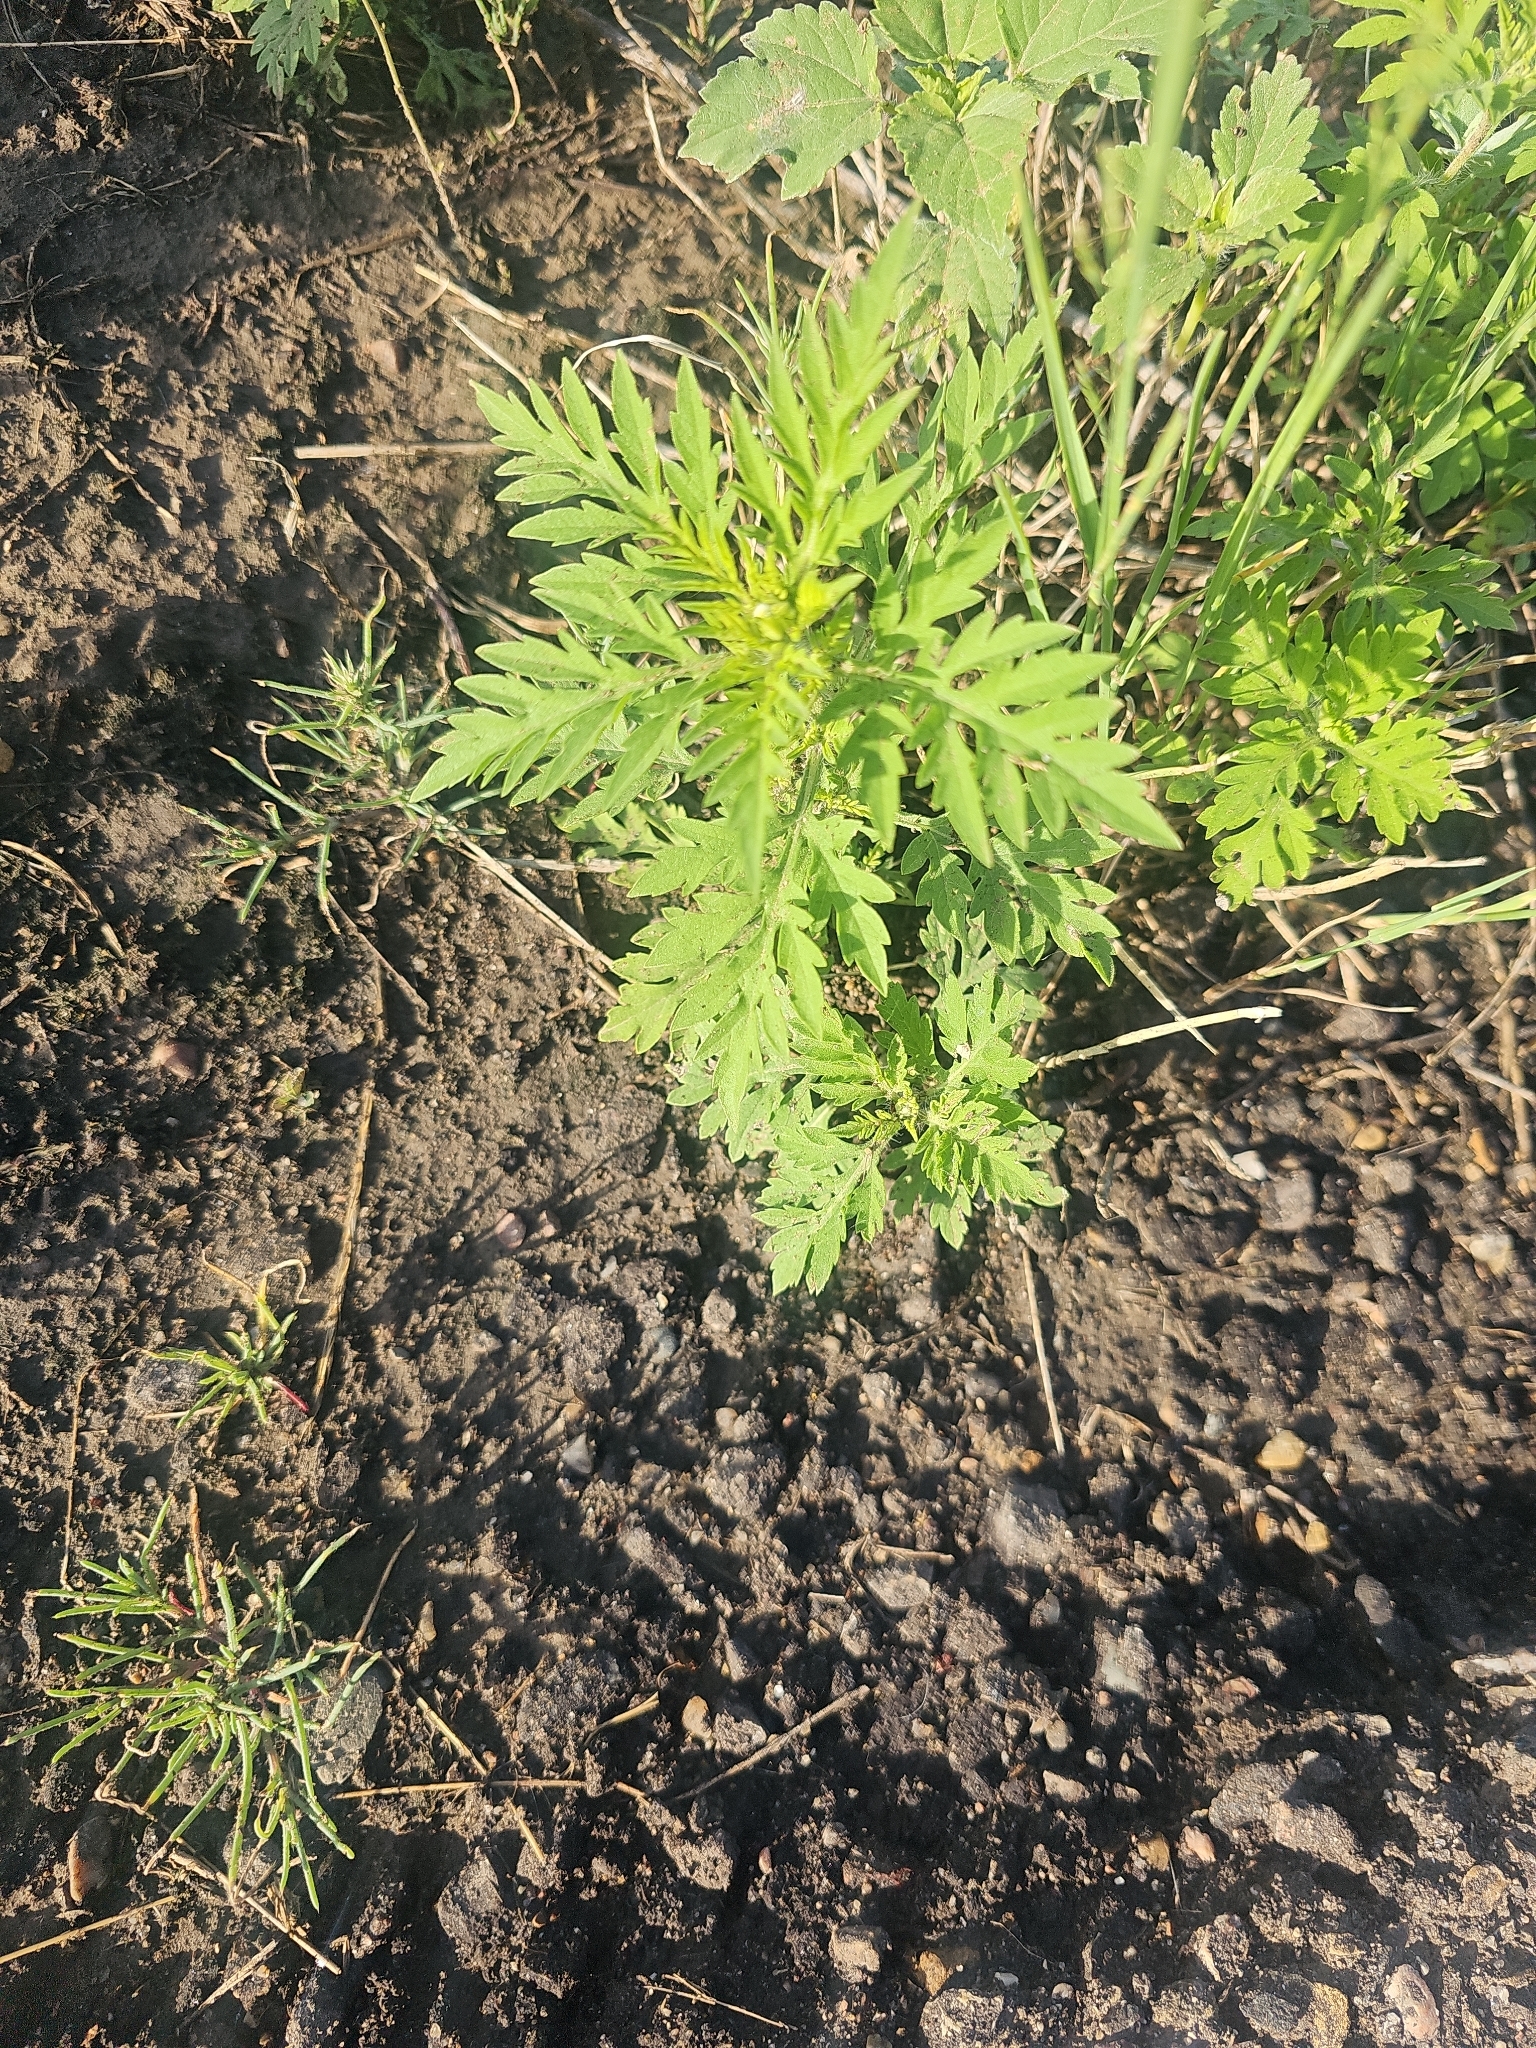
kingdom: Plantae
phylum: Tracheophyta
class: Magnoliopsida
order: Asterales
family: Asteraceae
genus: Ambrosia
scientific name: Ambrosia artemisiifolia
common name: Annual ragweed
